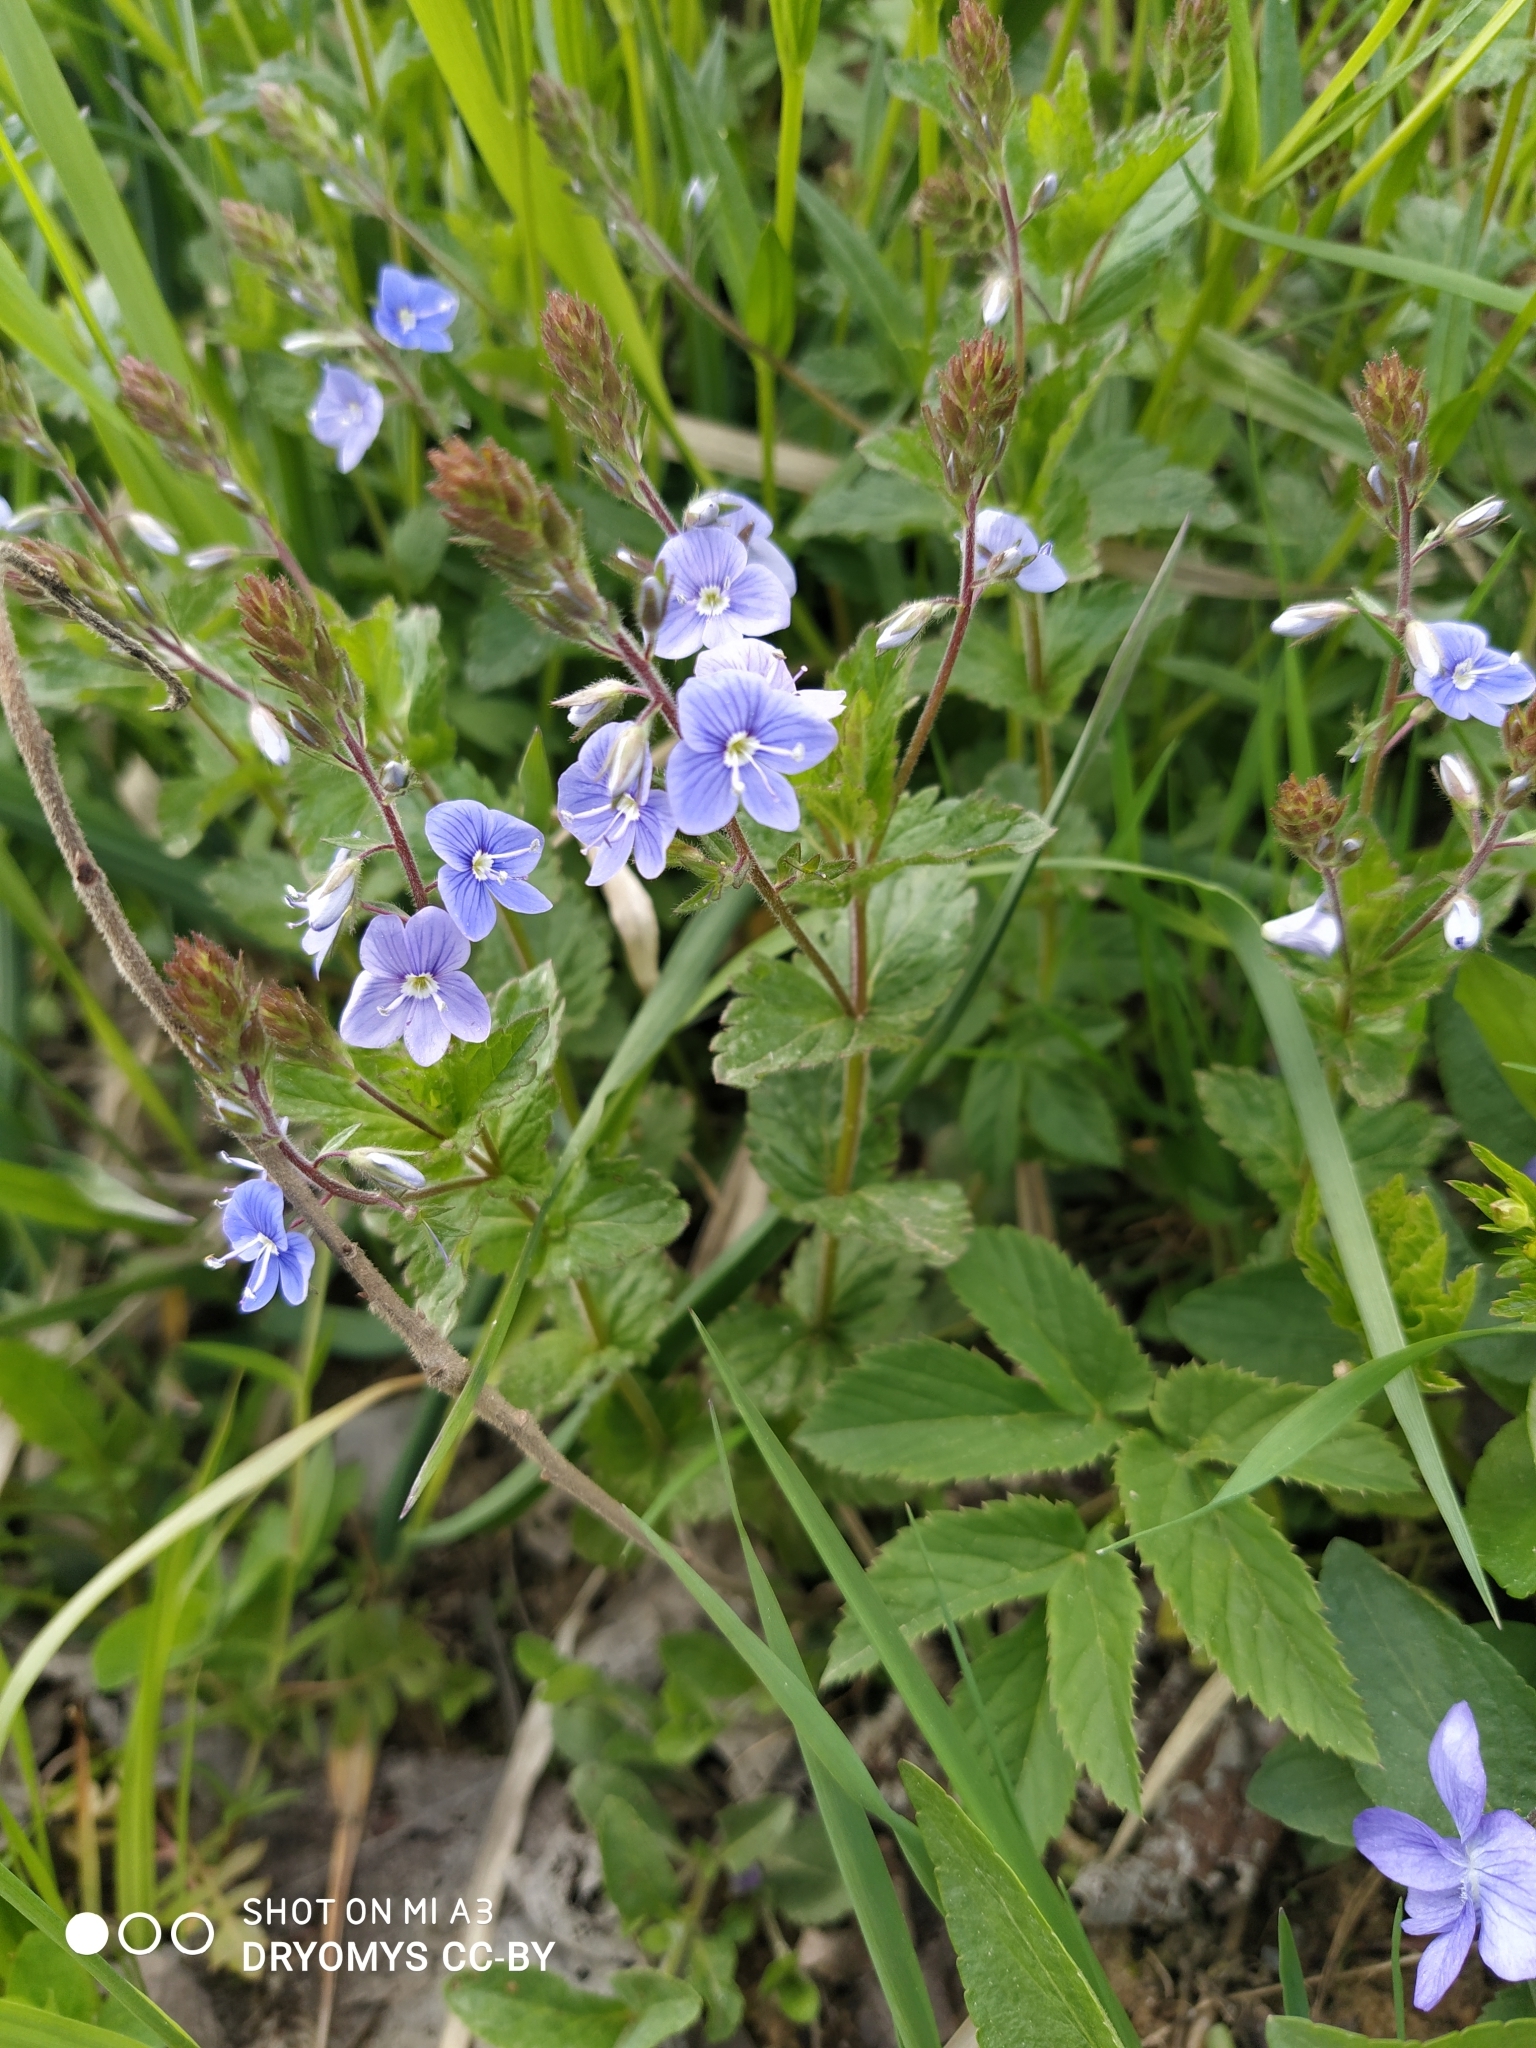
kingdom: Plantae
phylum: Tracheophyta
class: Magnoliopsida
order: Lamiales
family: Plantaginaceae
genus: Veronica
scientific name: Veronica chamaedrys
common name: Germander speedwell
